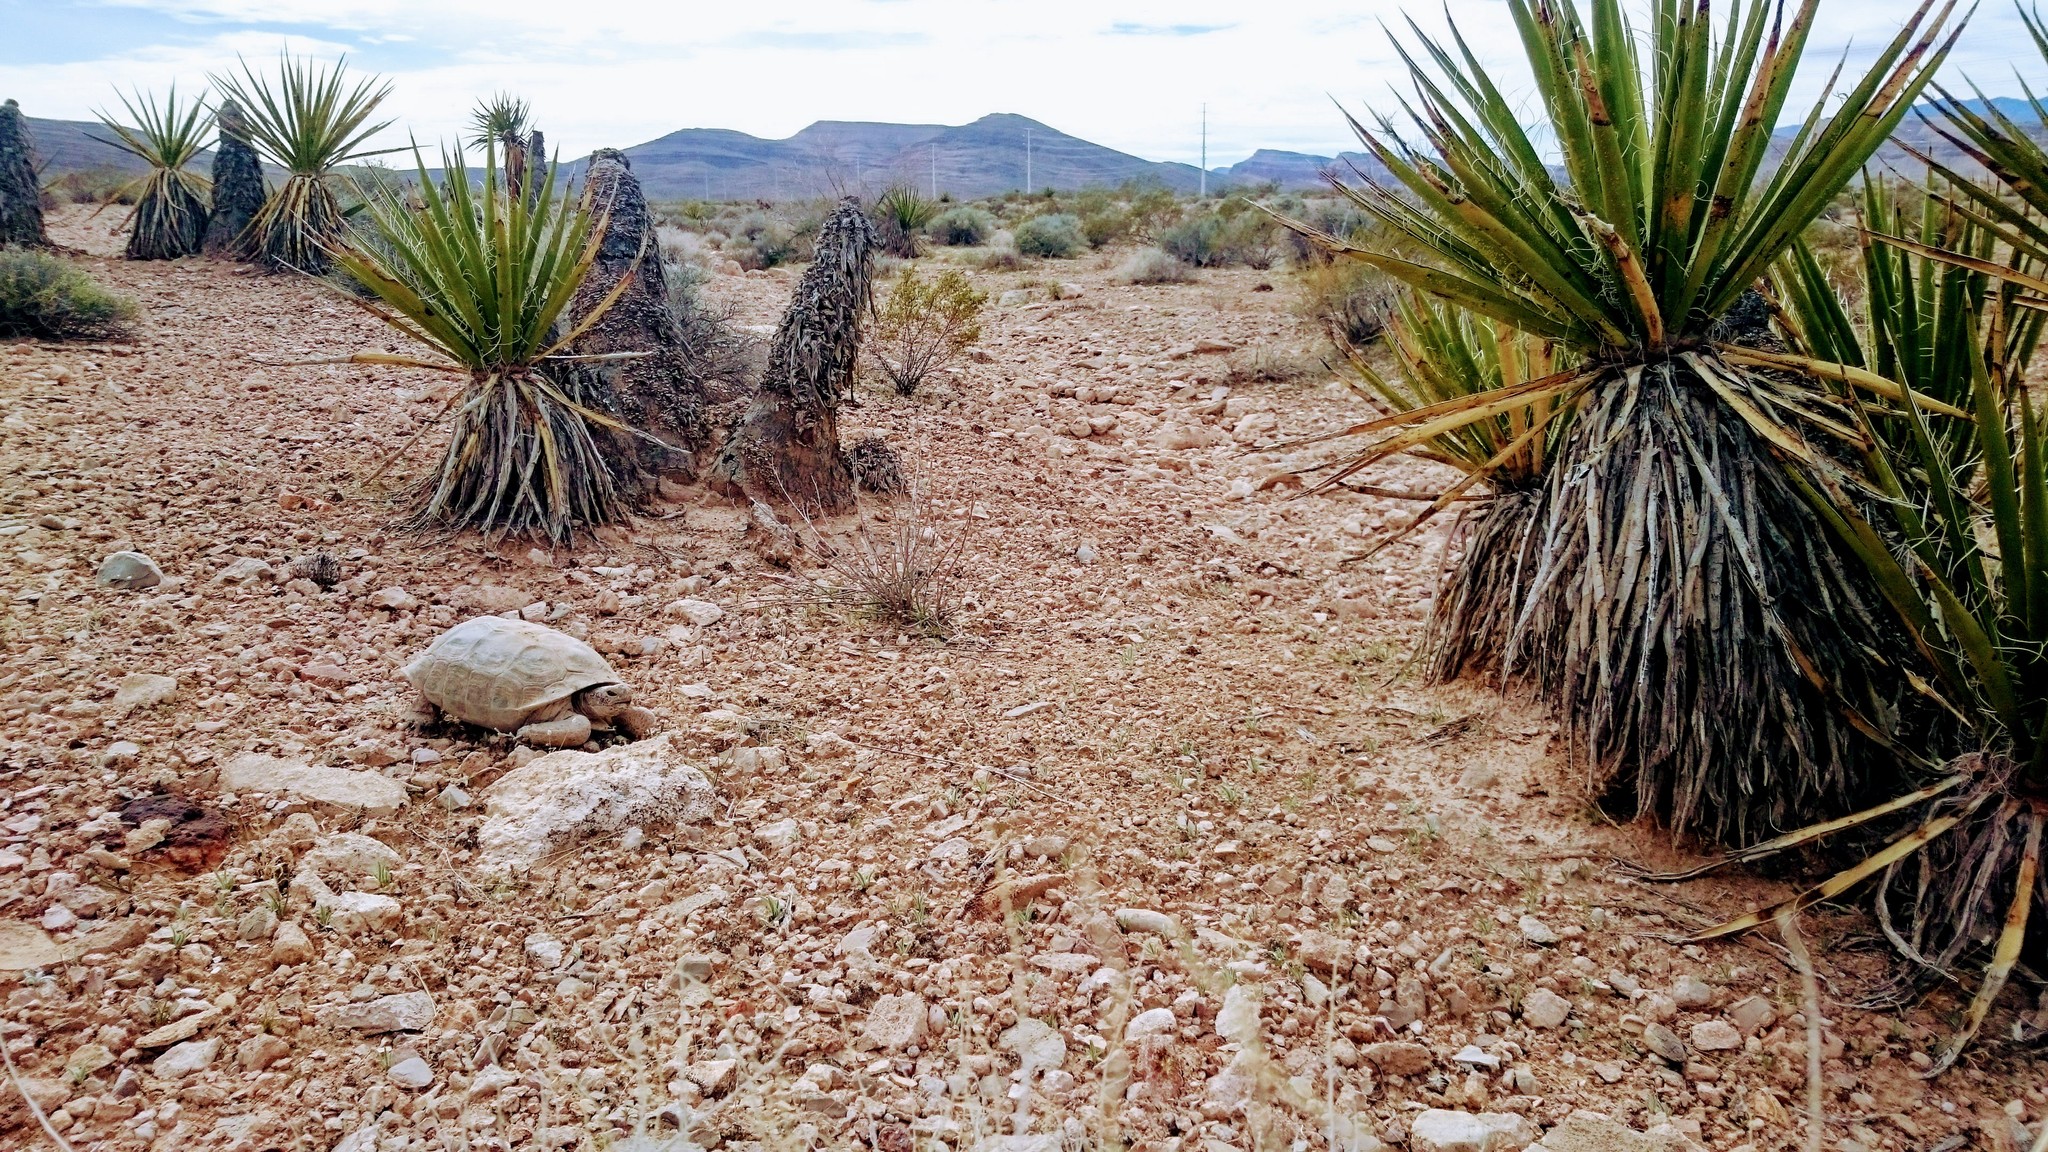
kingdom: Animalia
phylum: Chordata
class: Testudines
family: Testudinidae
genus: Gopherus
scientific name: Gopherus agassizii
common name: Mojave desert tortoise
